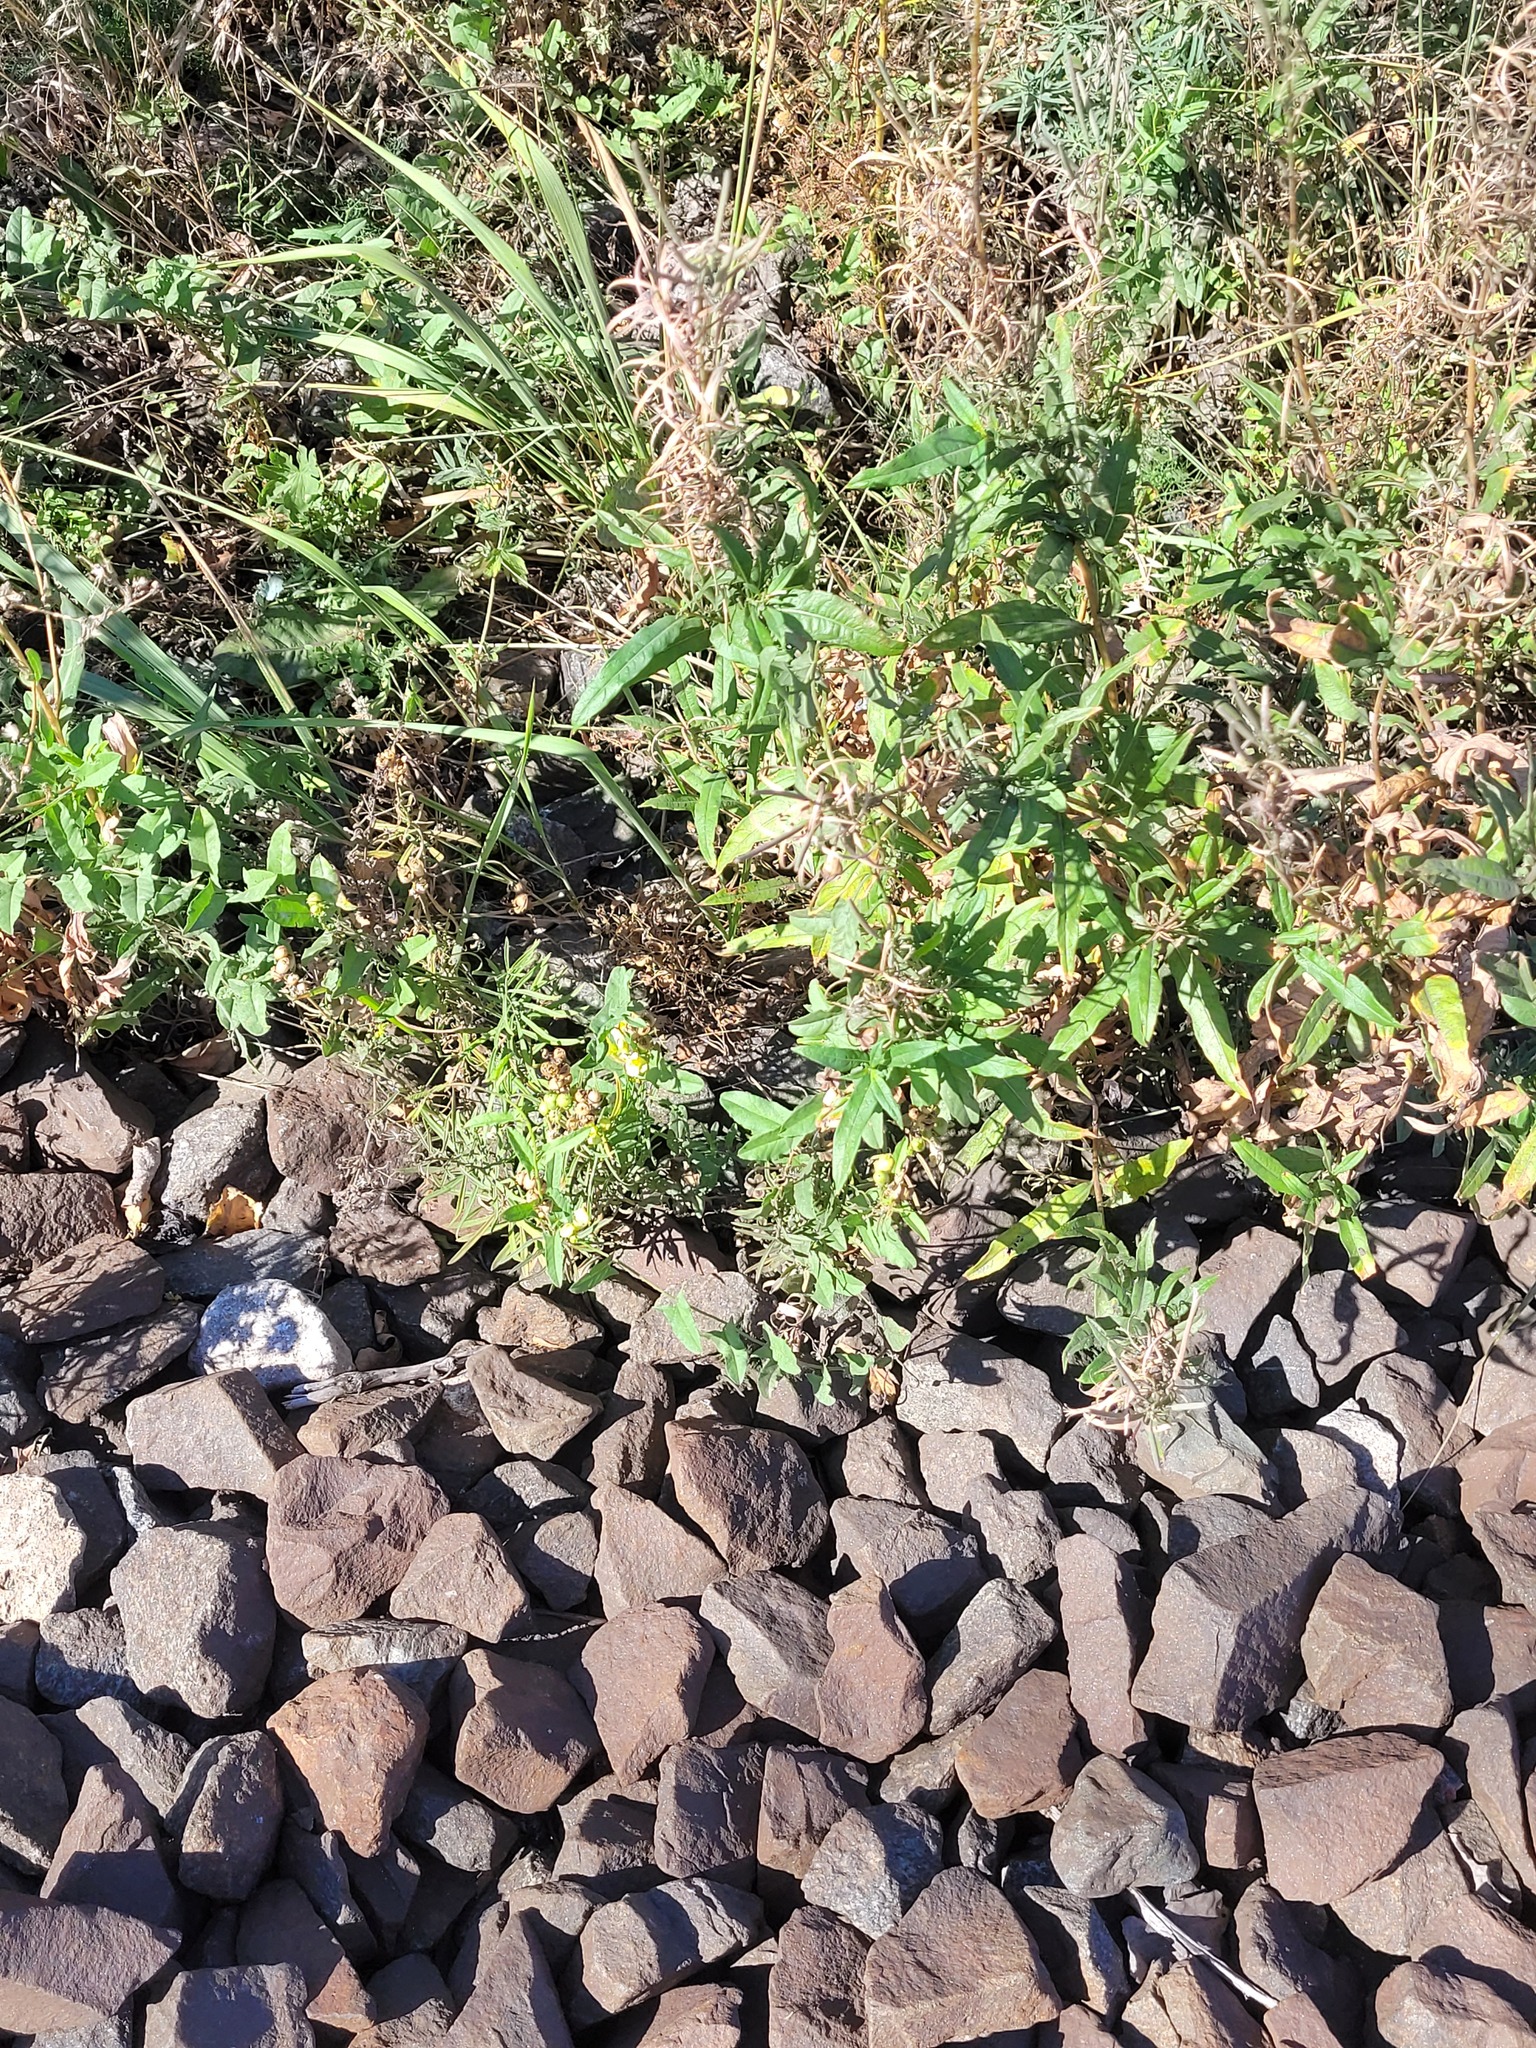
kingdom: Plantae
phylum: Tracheophyta
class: Magnoliopsida
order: Lamiales
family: Plantaginaceae
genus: Linaria
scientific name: Linaria vulgaris
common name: Butter and eggs
